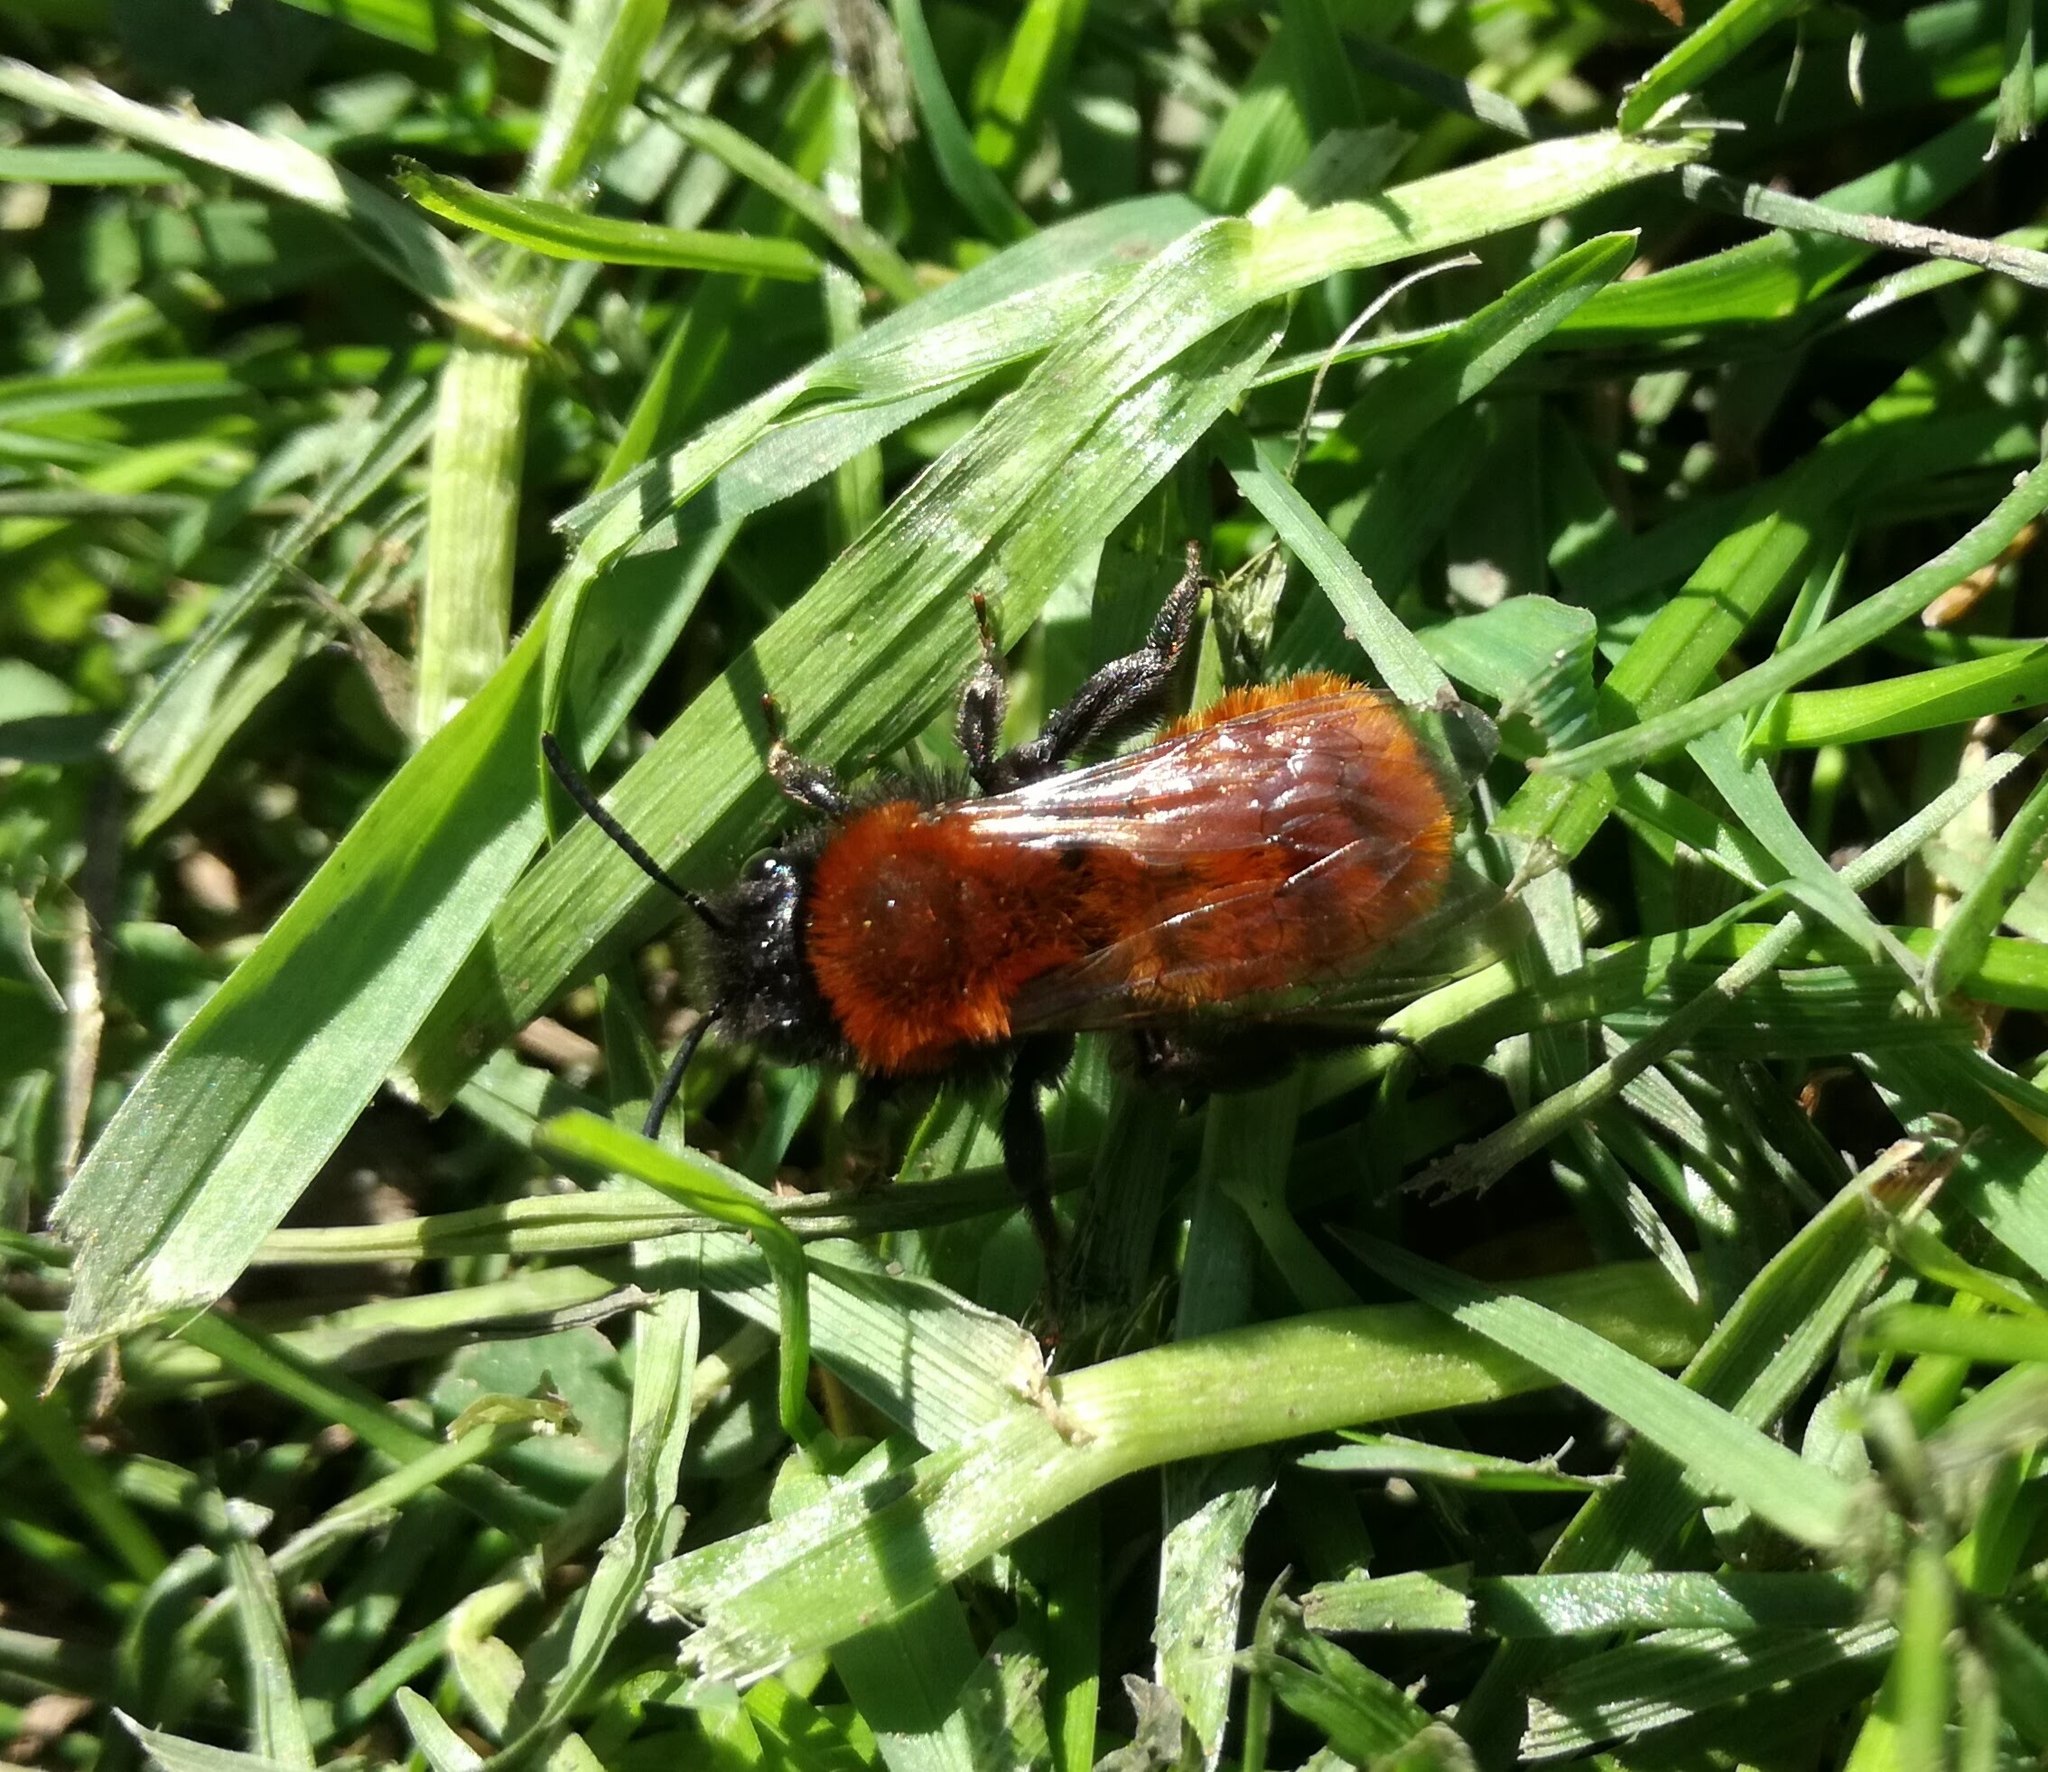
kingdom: Animalia
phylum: Arthropoda
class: Insecta
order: Hymenoptera
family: Andrenidae
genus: Andrena
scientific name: Andrena fulva
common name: Tawny mining bee
